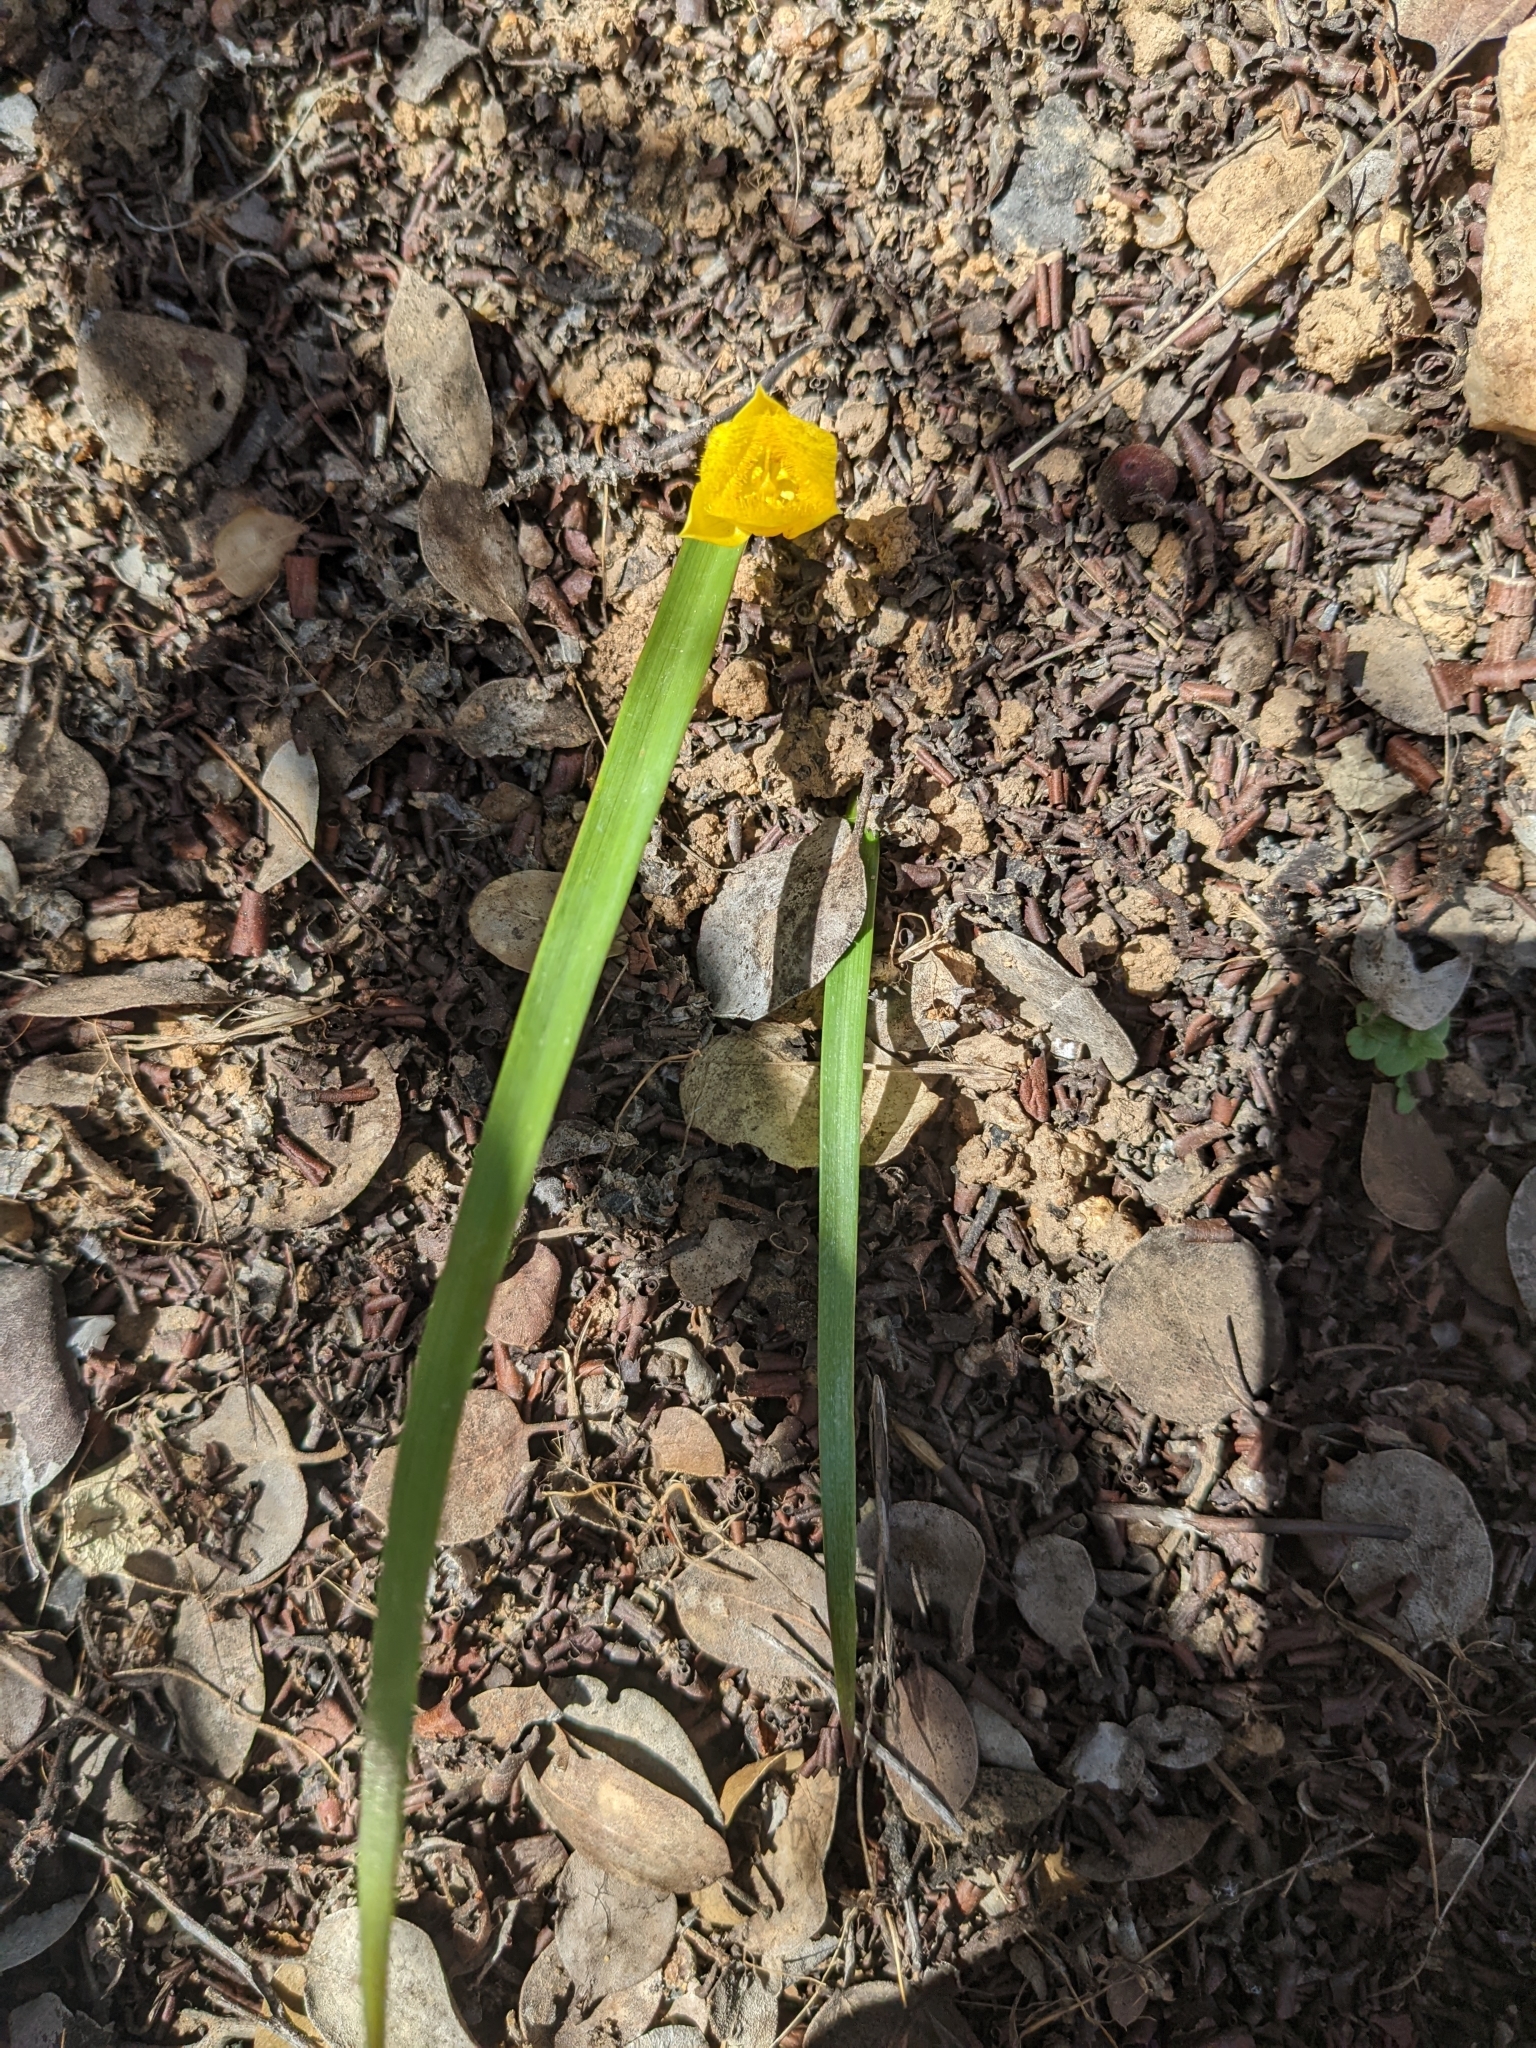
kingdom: Plantae
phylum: Tracheophyta
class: Liliopsida
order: Liliales
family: Liliaceae
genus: Calochortus
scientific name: Calochortus monophyllus
